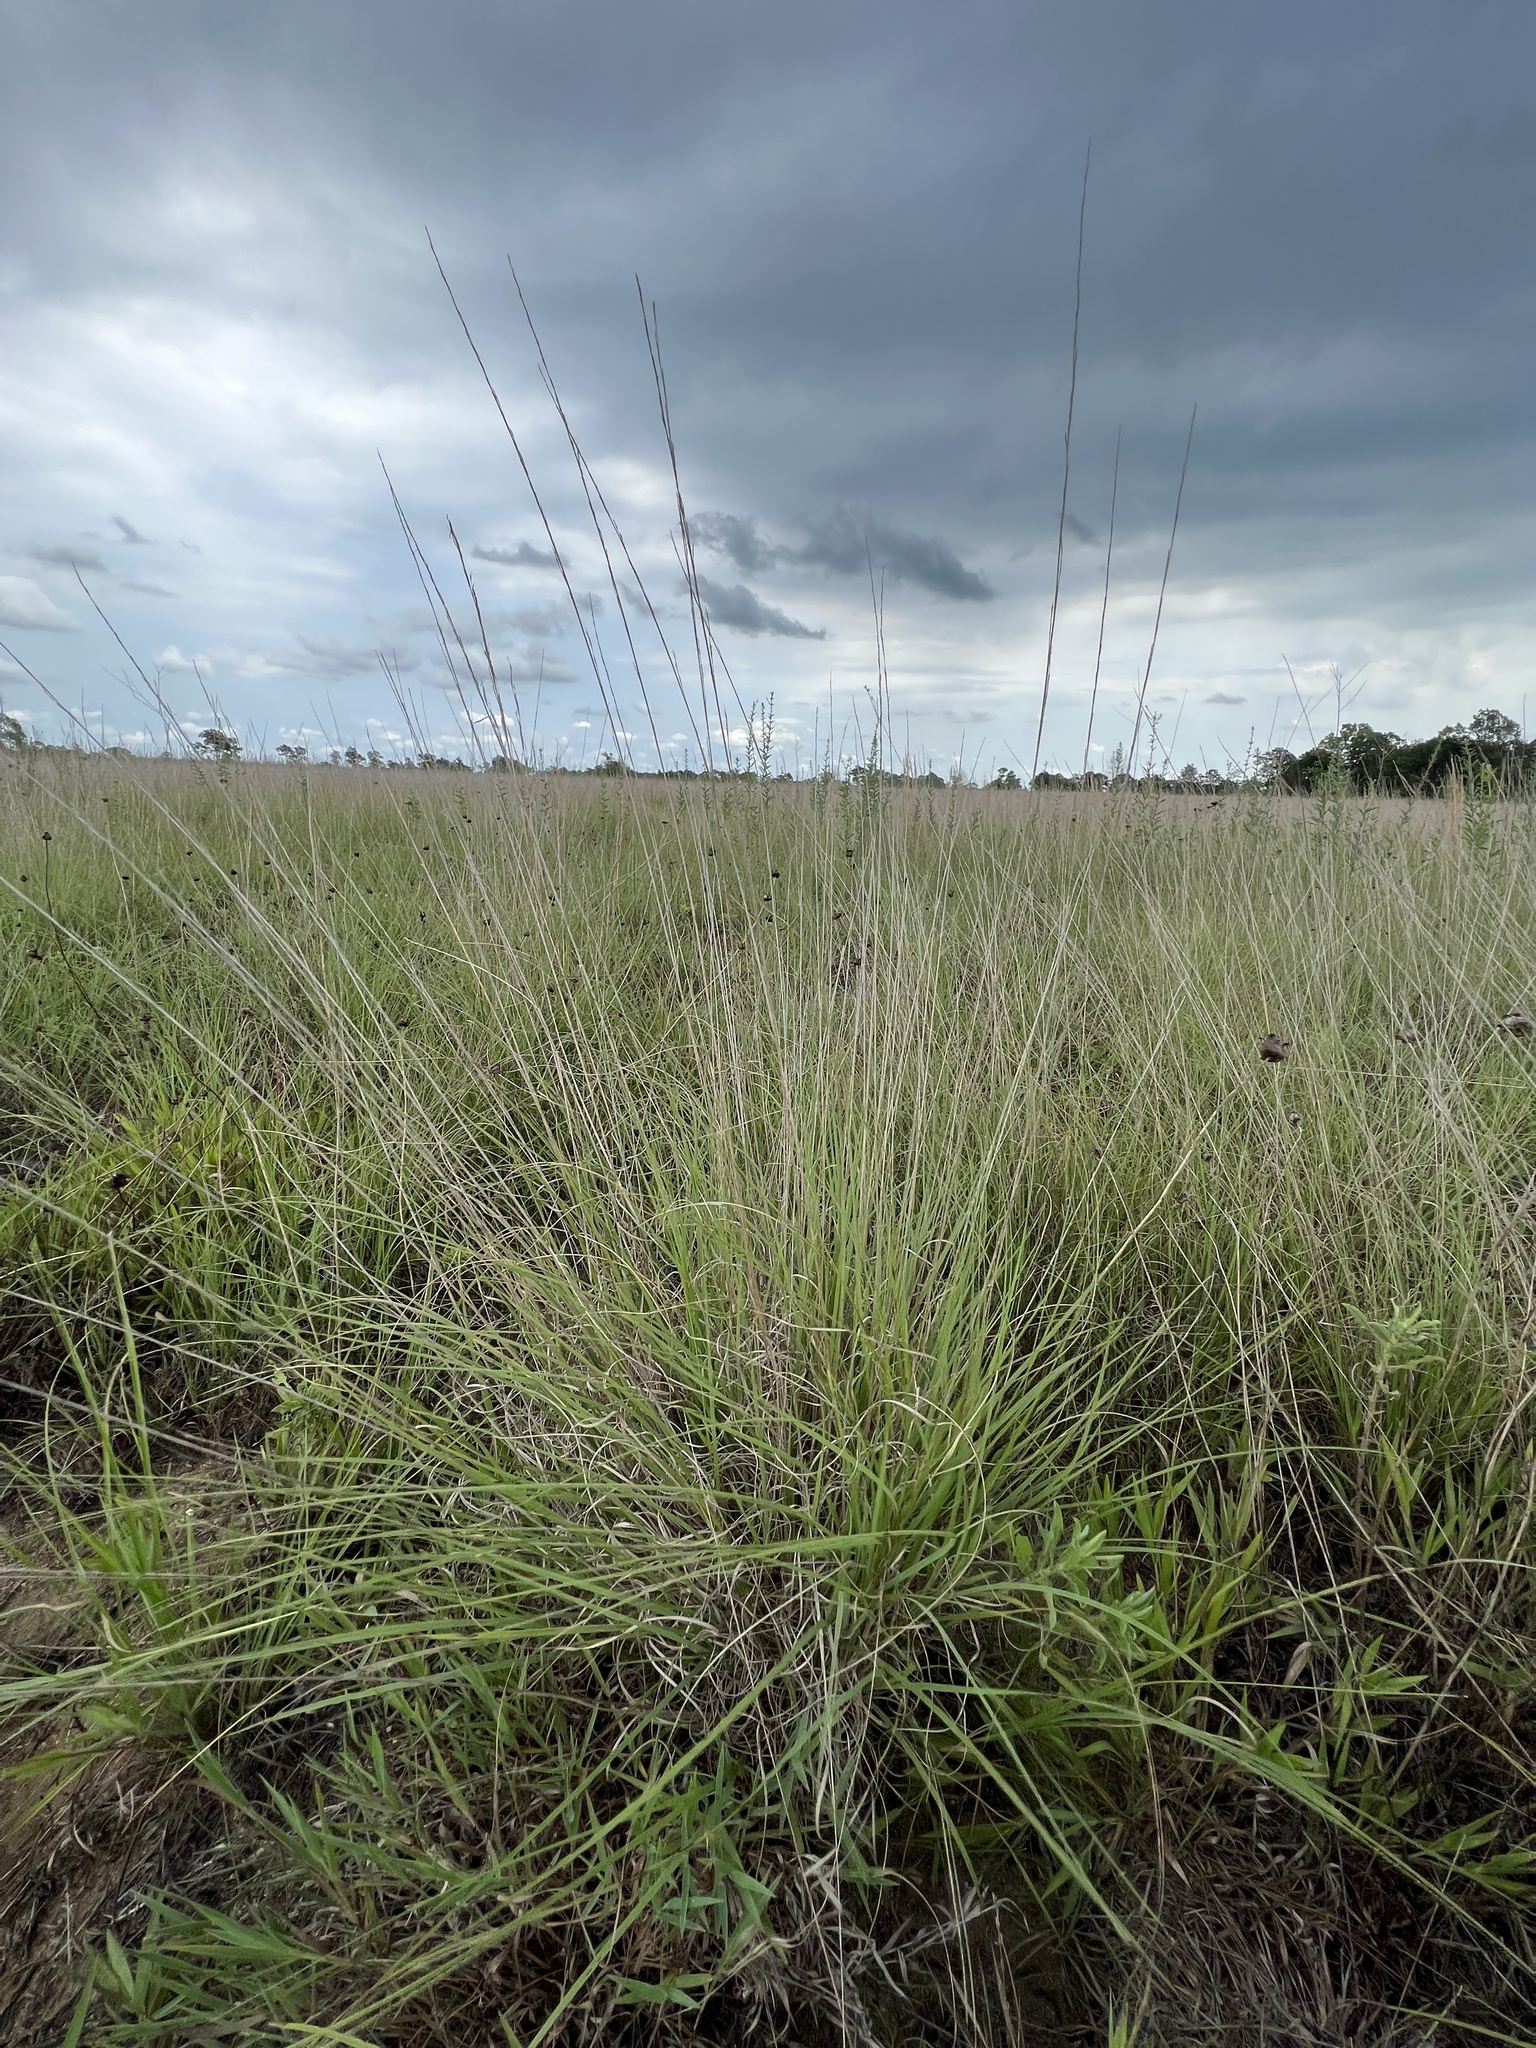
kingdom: Plantae
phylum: Tracheophyta
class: Liliopsida
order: Poales
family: Poaceae
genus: Aristida
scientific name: Aristida purpurascens
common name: Arrow-feather
